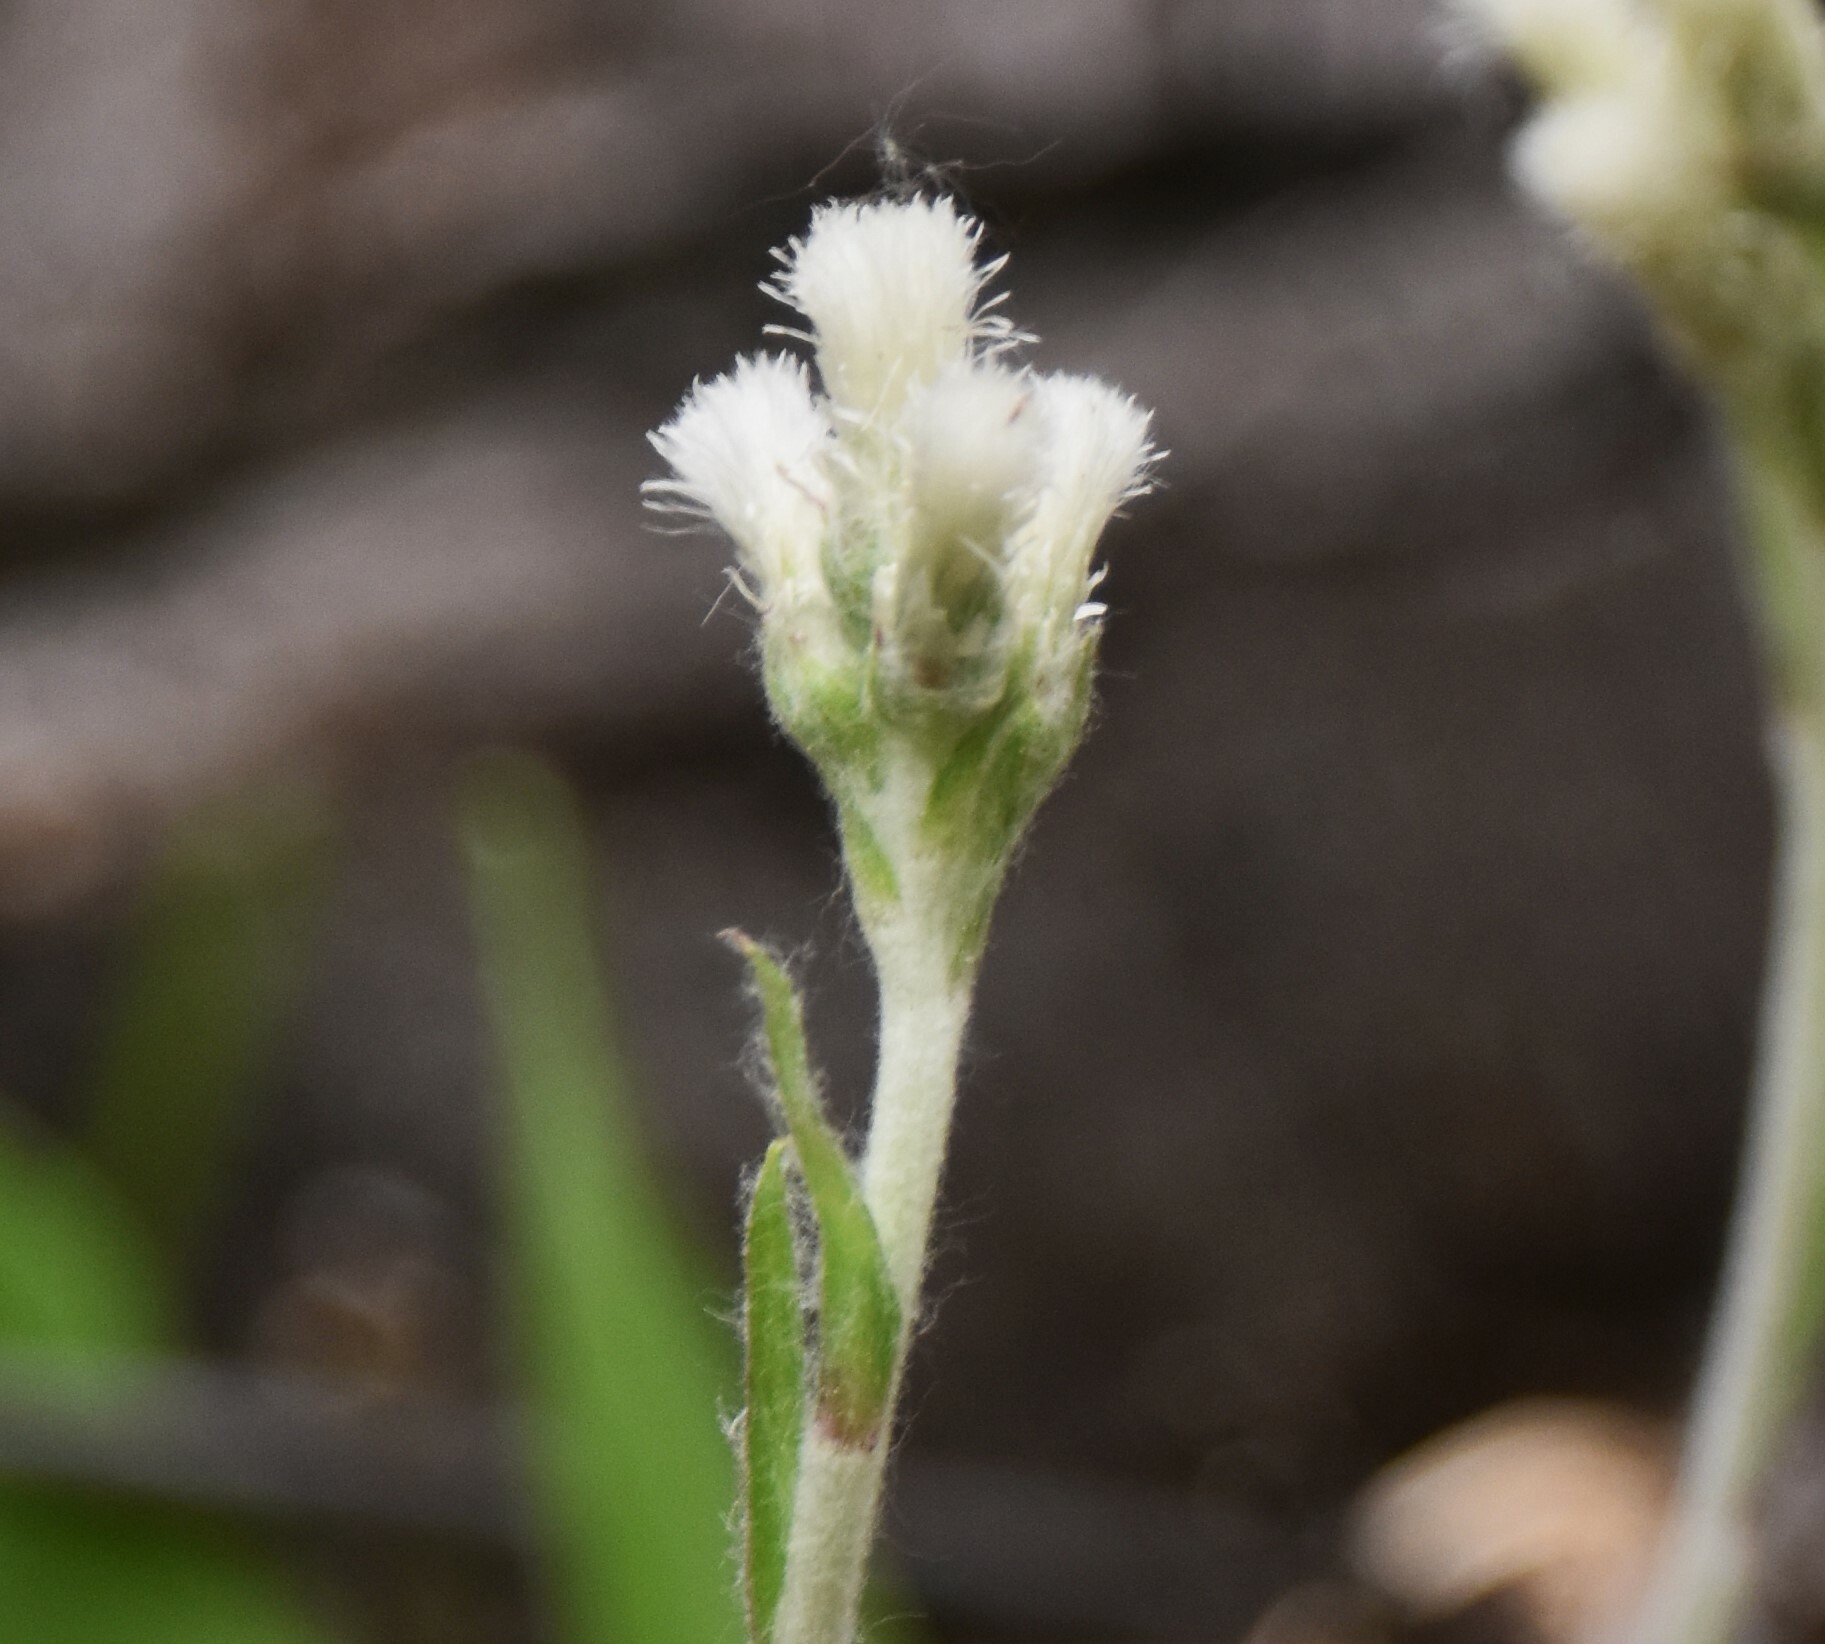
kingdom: Plantae
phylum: Tracheophyta
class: Magnoliopsida
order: Asterales
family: Asteraceae
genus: Antennaria
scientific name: Antennaria neglecta
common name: Field pussytoes
